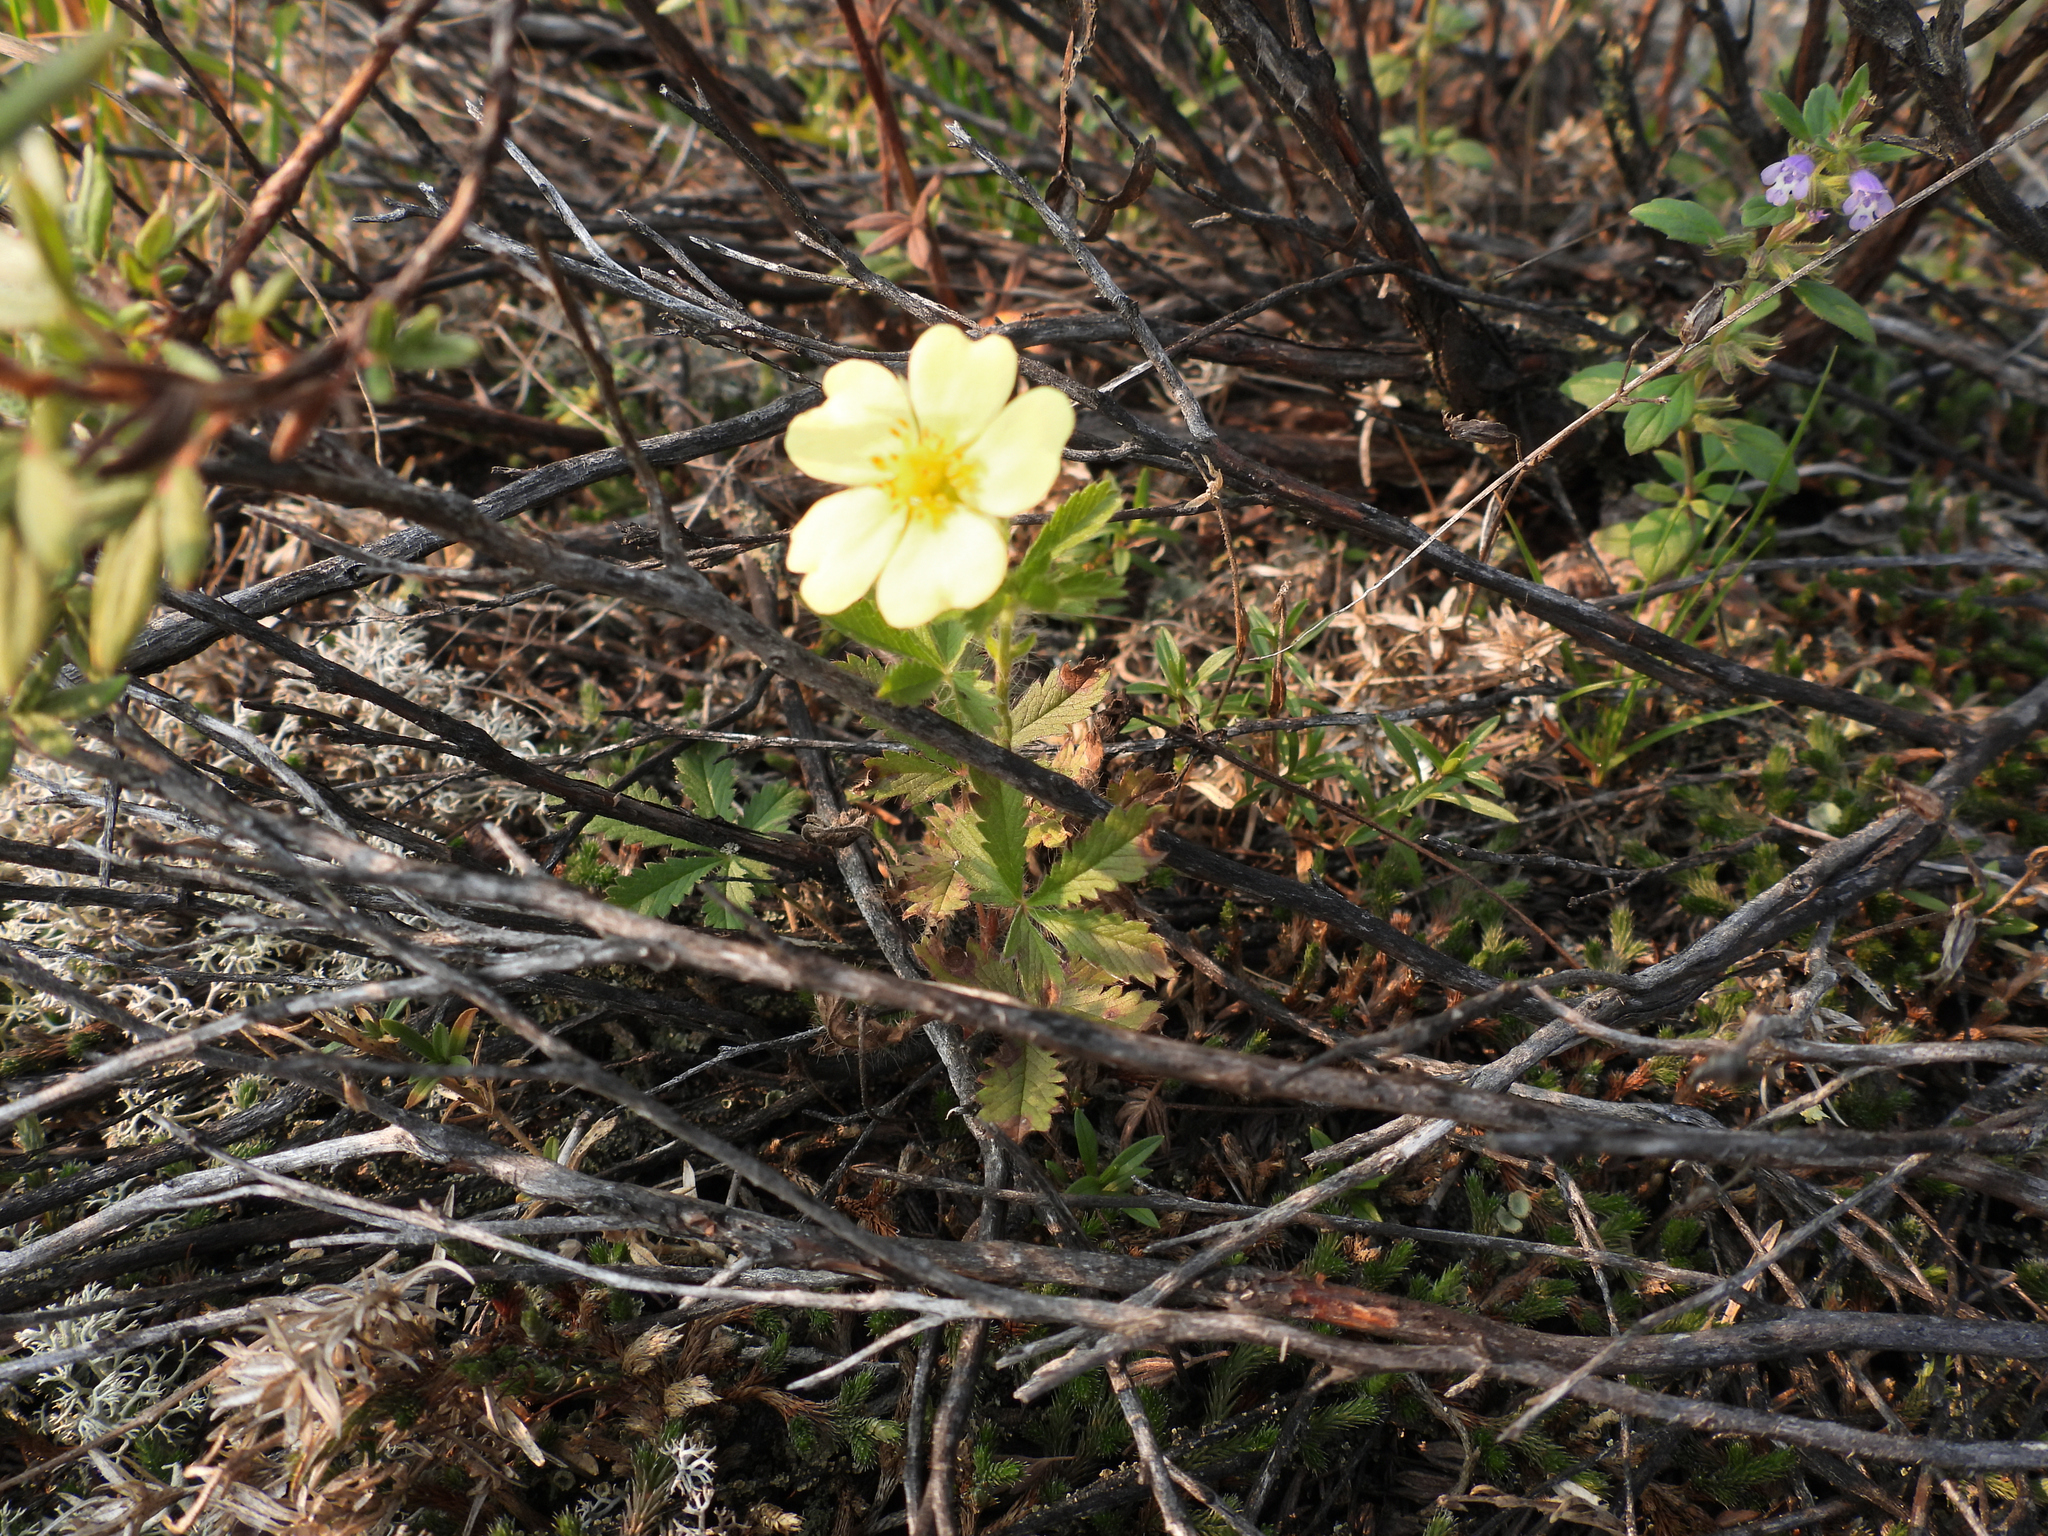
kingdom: Plantae
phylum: Tracheophyta
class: Magnoliopsida
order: Rosales
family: Rosaceae
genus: Potentilla
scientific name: Potentilla recta
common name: Sulphur cinquefoil
